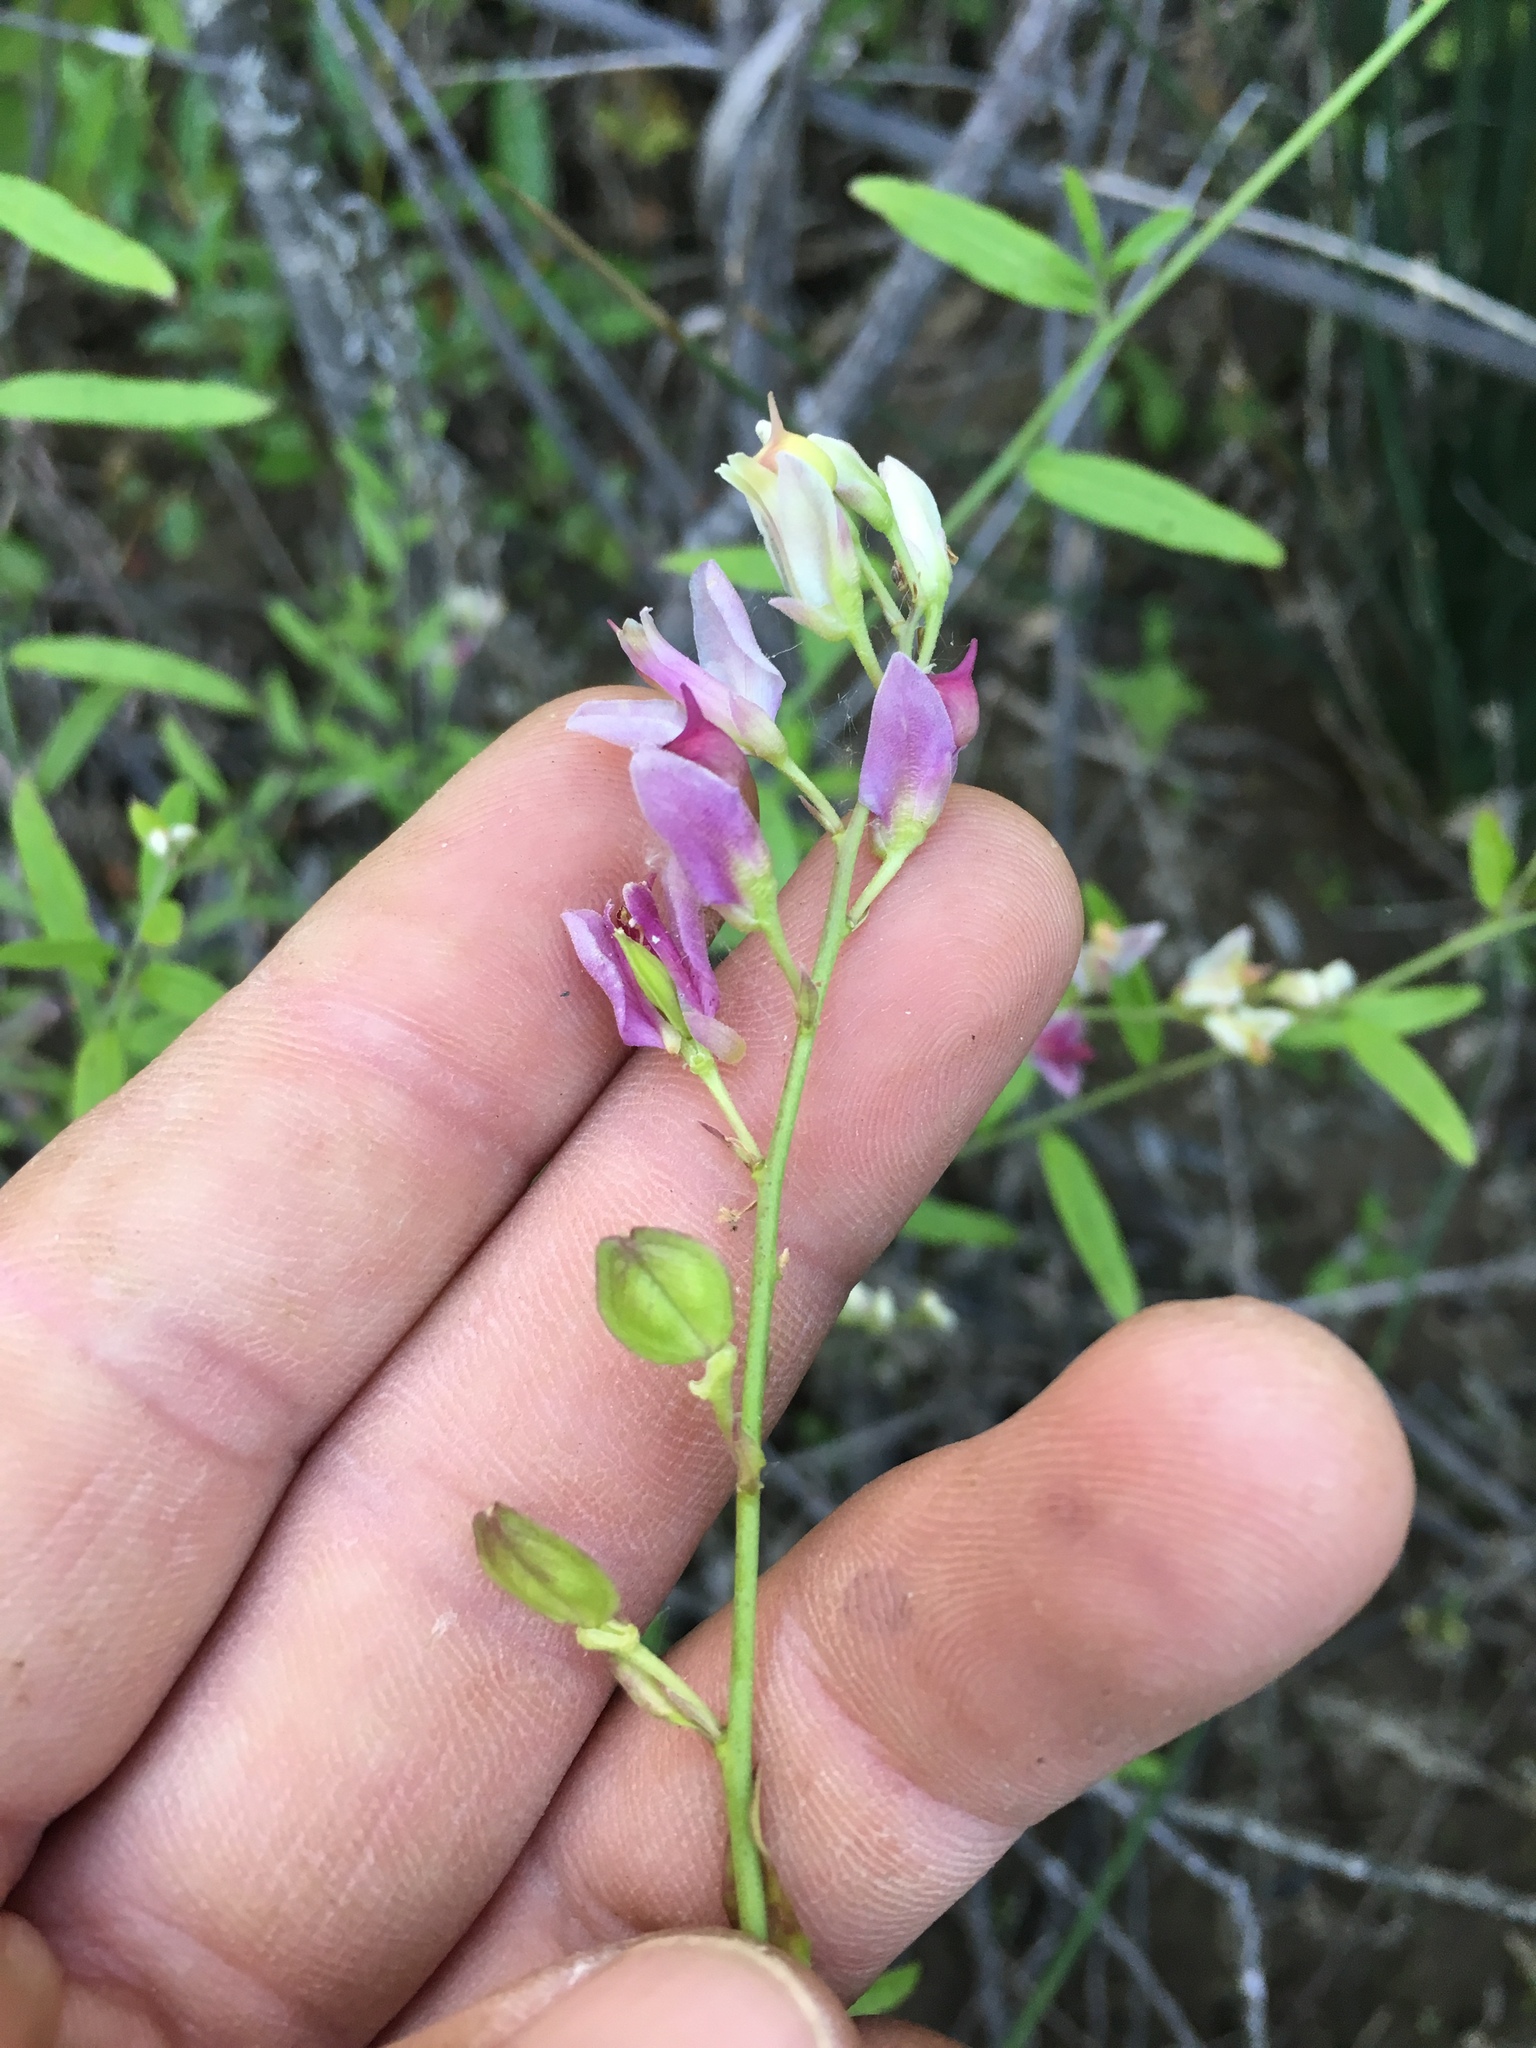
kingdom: Plantae
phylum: Tracheophyta
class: Magnoliopsida
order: Fabales
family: Polygalaceae
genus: Rhinotropis
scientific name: Rhinotropis cornuta
